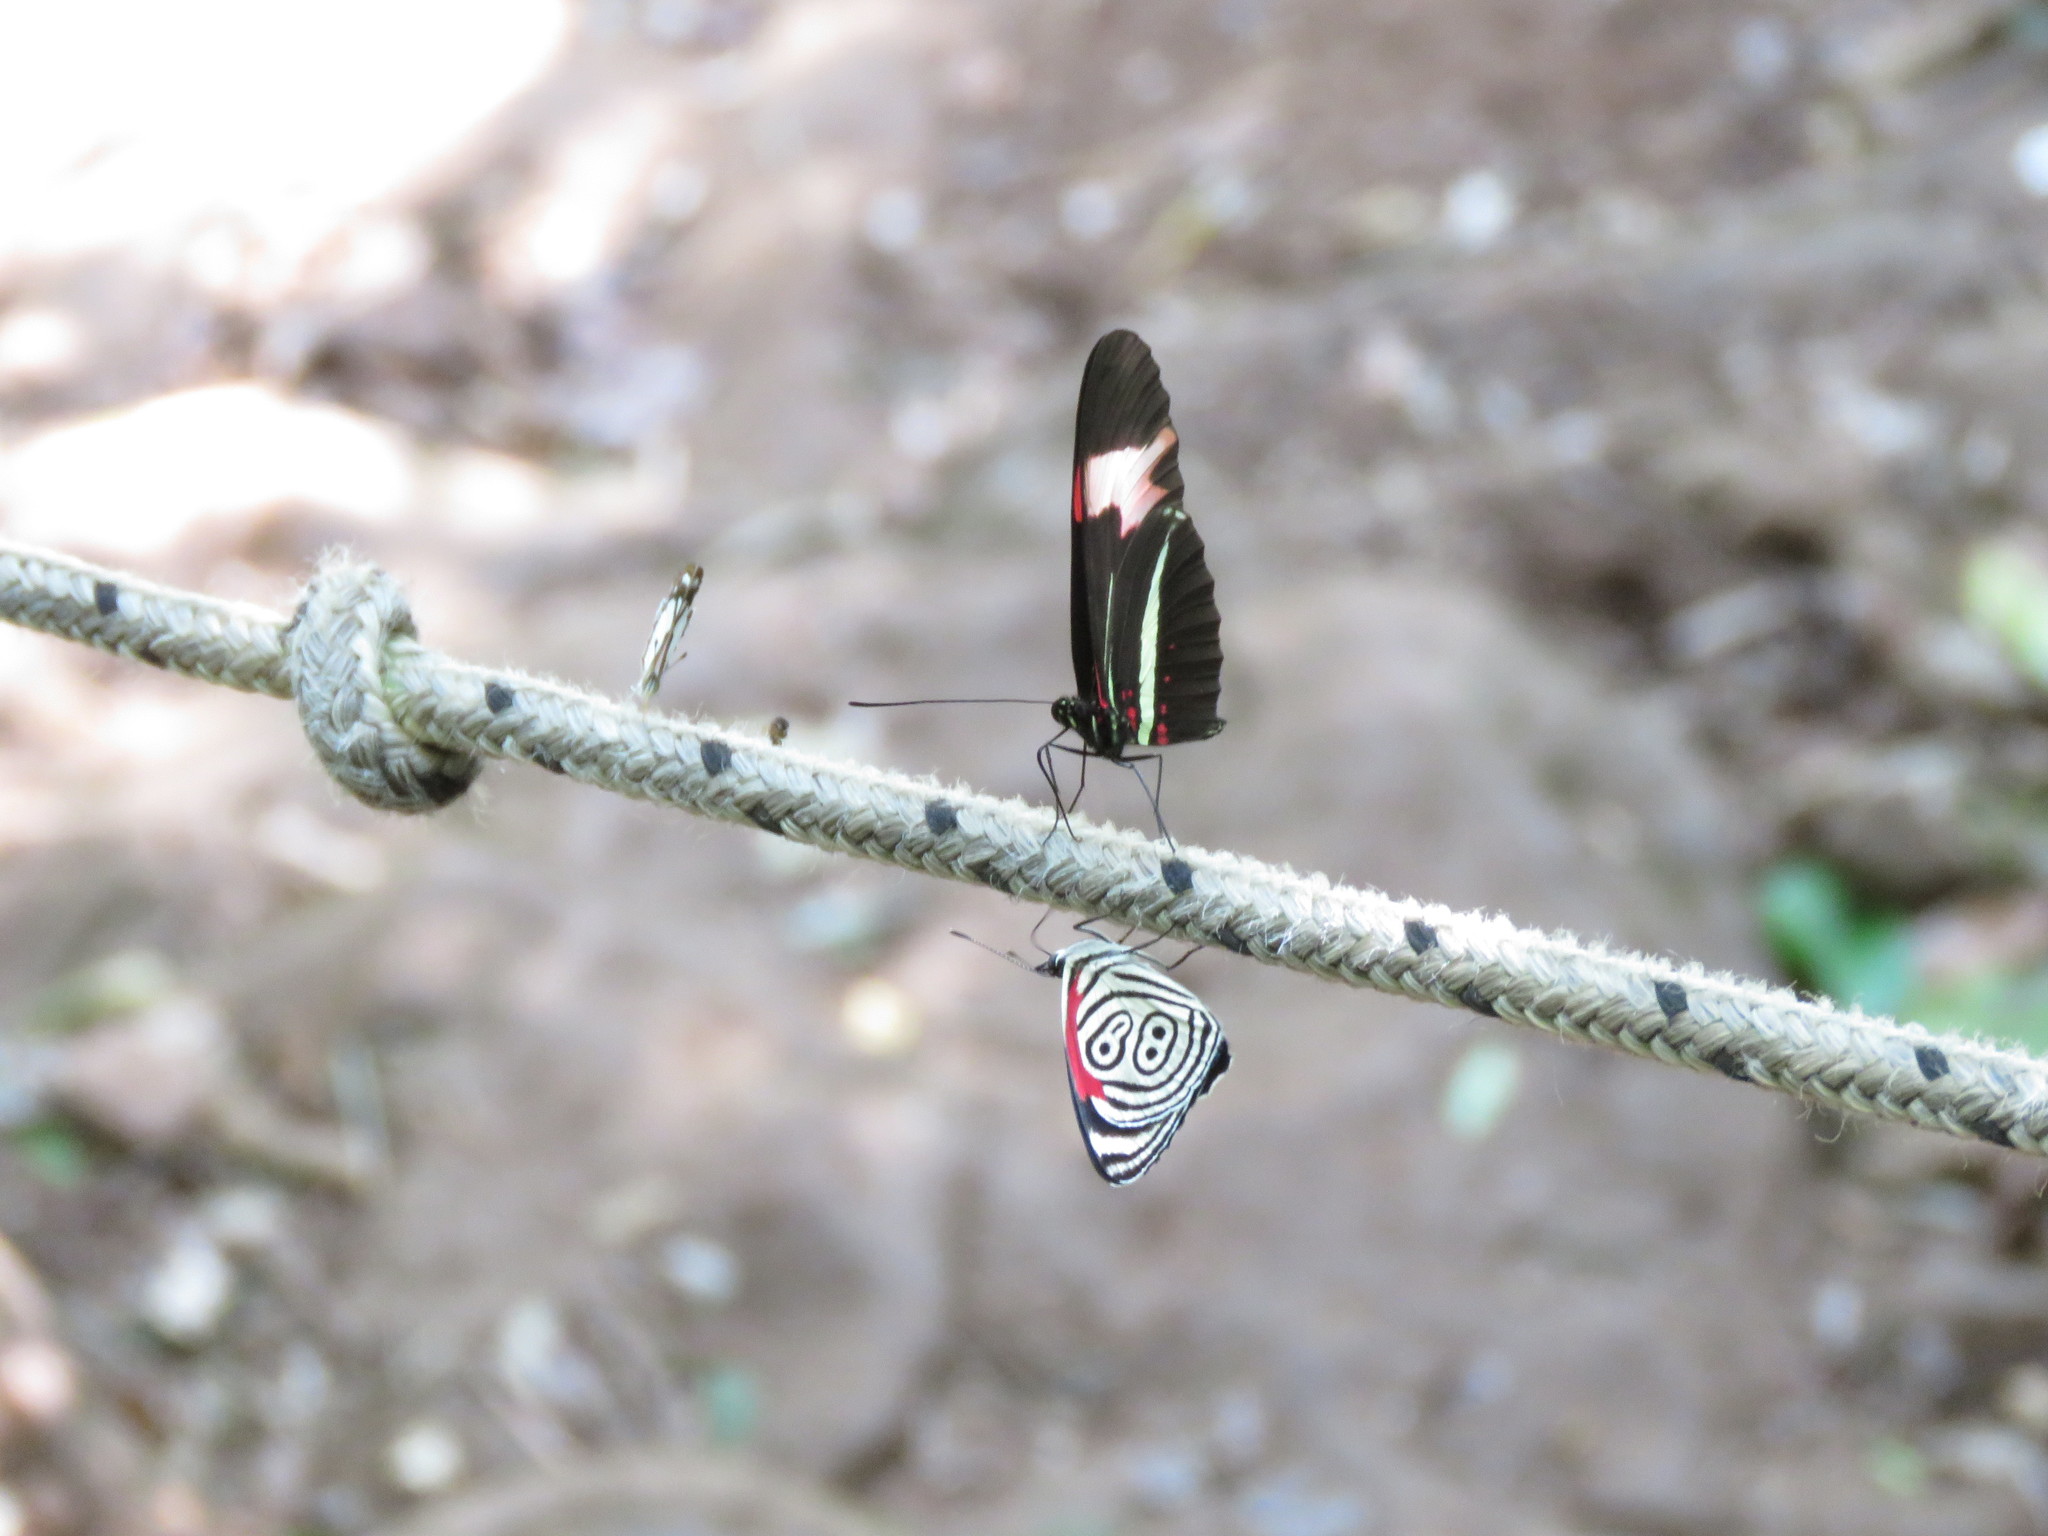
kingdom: Animalia
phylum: Arthropoda
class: Insecta
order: Lepidoptera
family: Nymphalidae
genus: Heliconius
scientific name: Heliconius erato
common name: Common patch longwing
